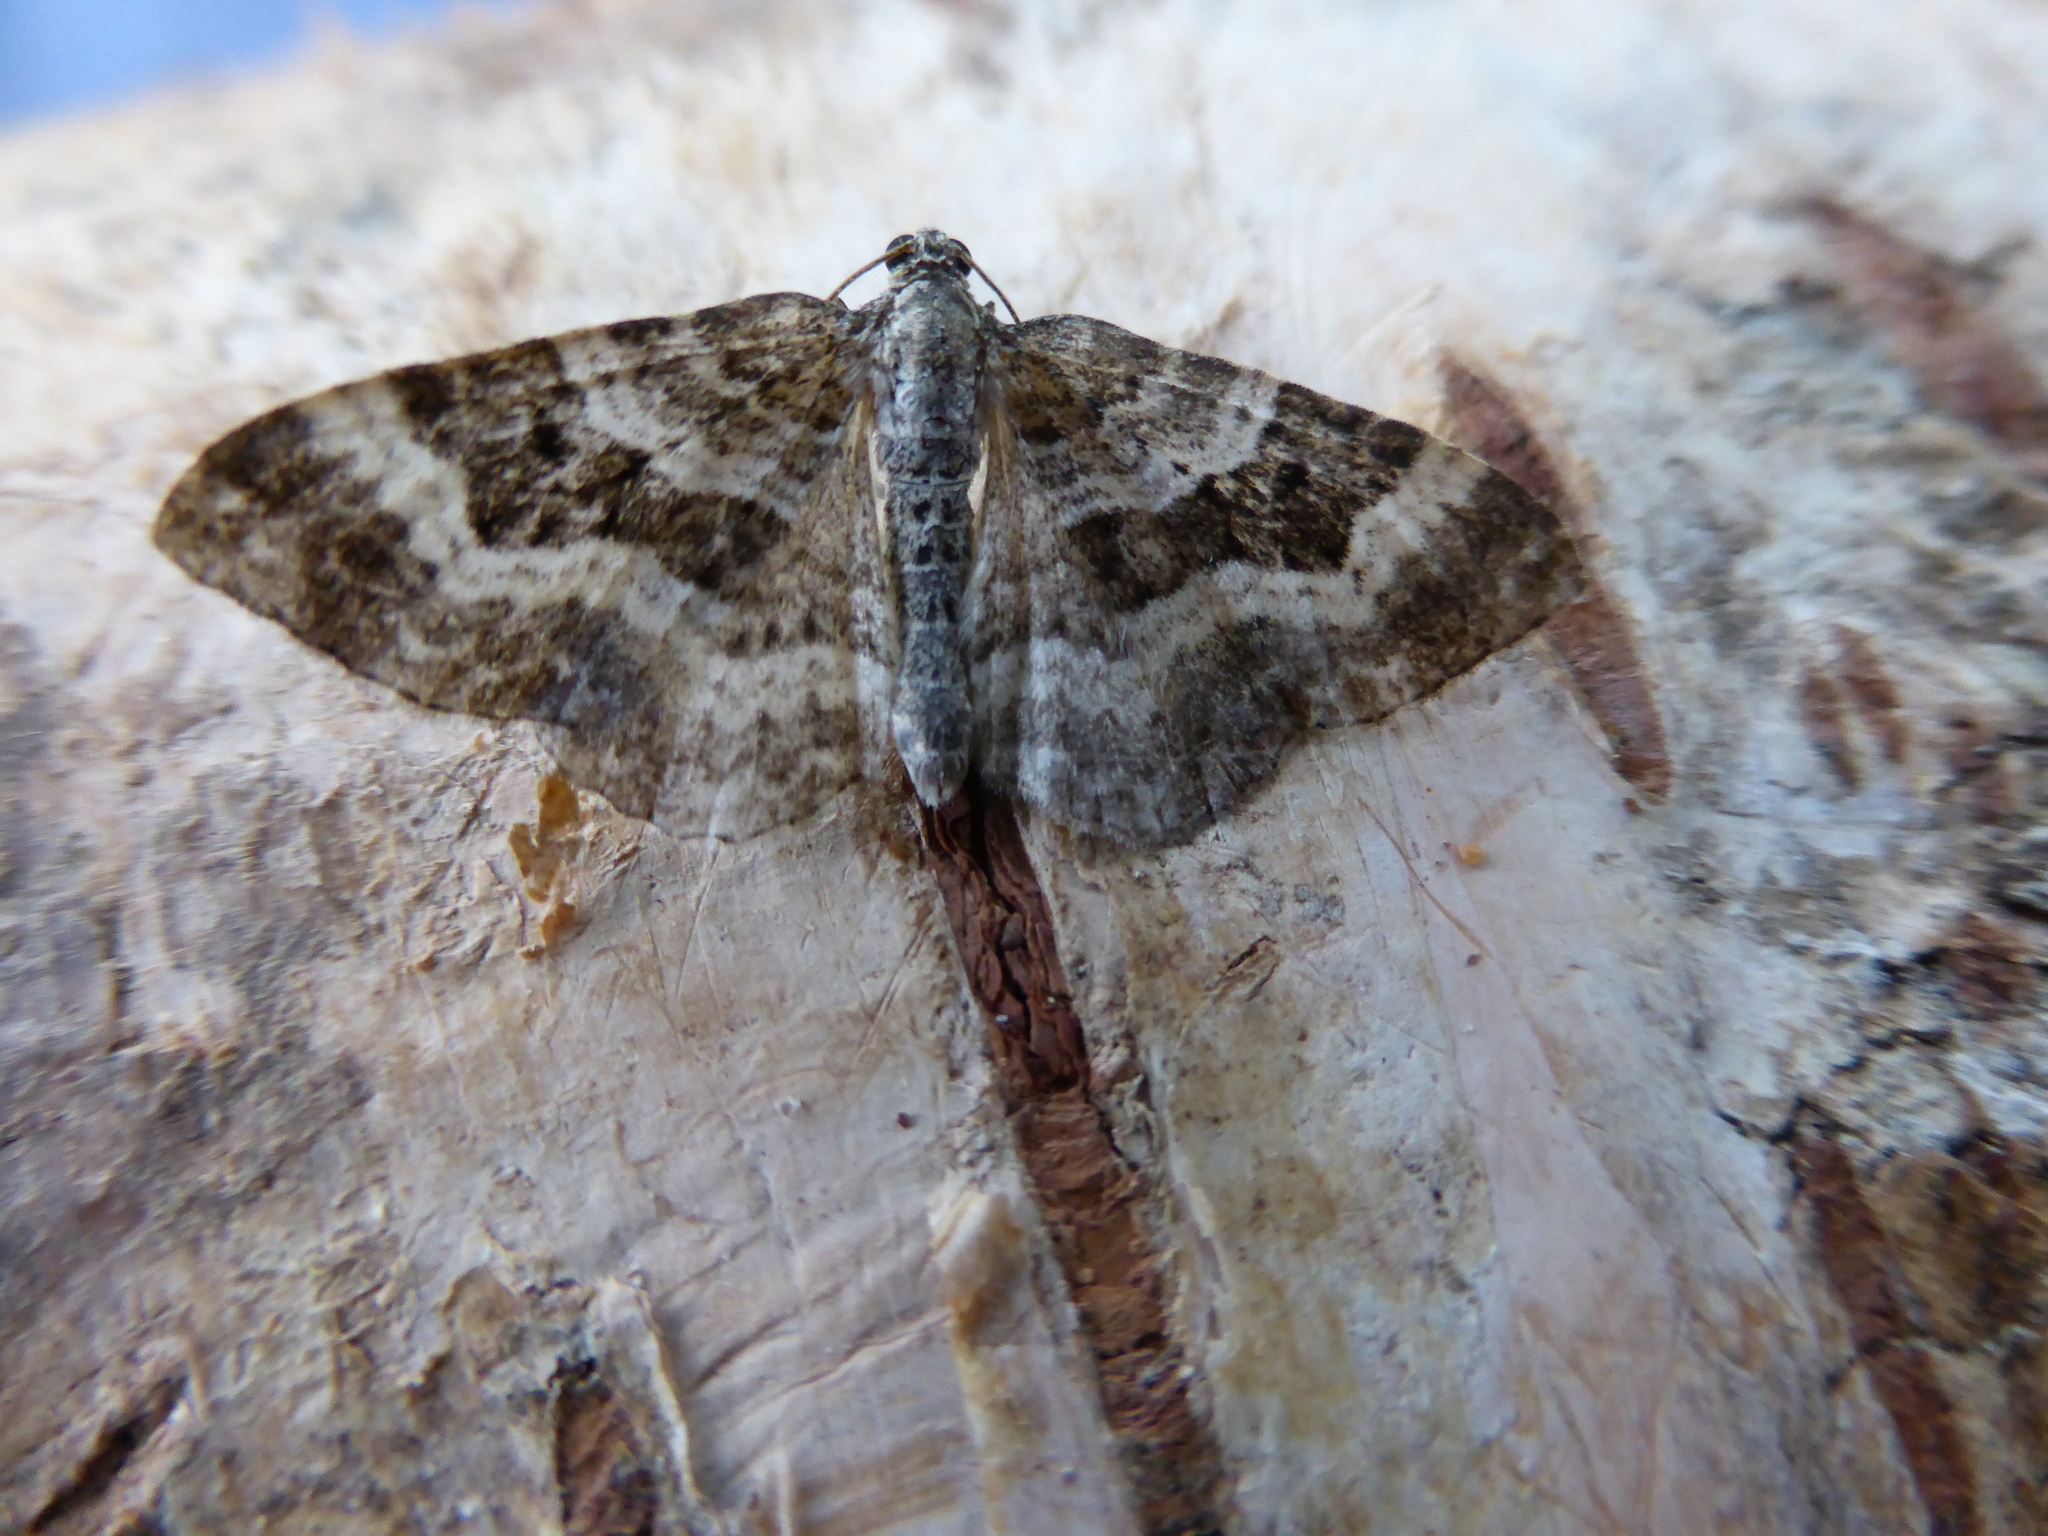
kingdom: Animalia
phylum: Arthropoda
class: Insecta
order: Lepidoptera
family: Geometridae
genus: Epirrhoe
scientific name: Epirrhoe alternata
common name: Common carpet
